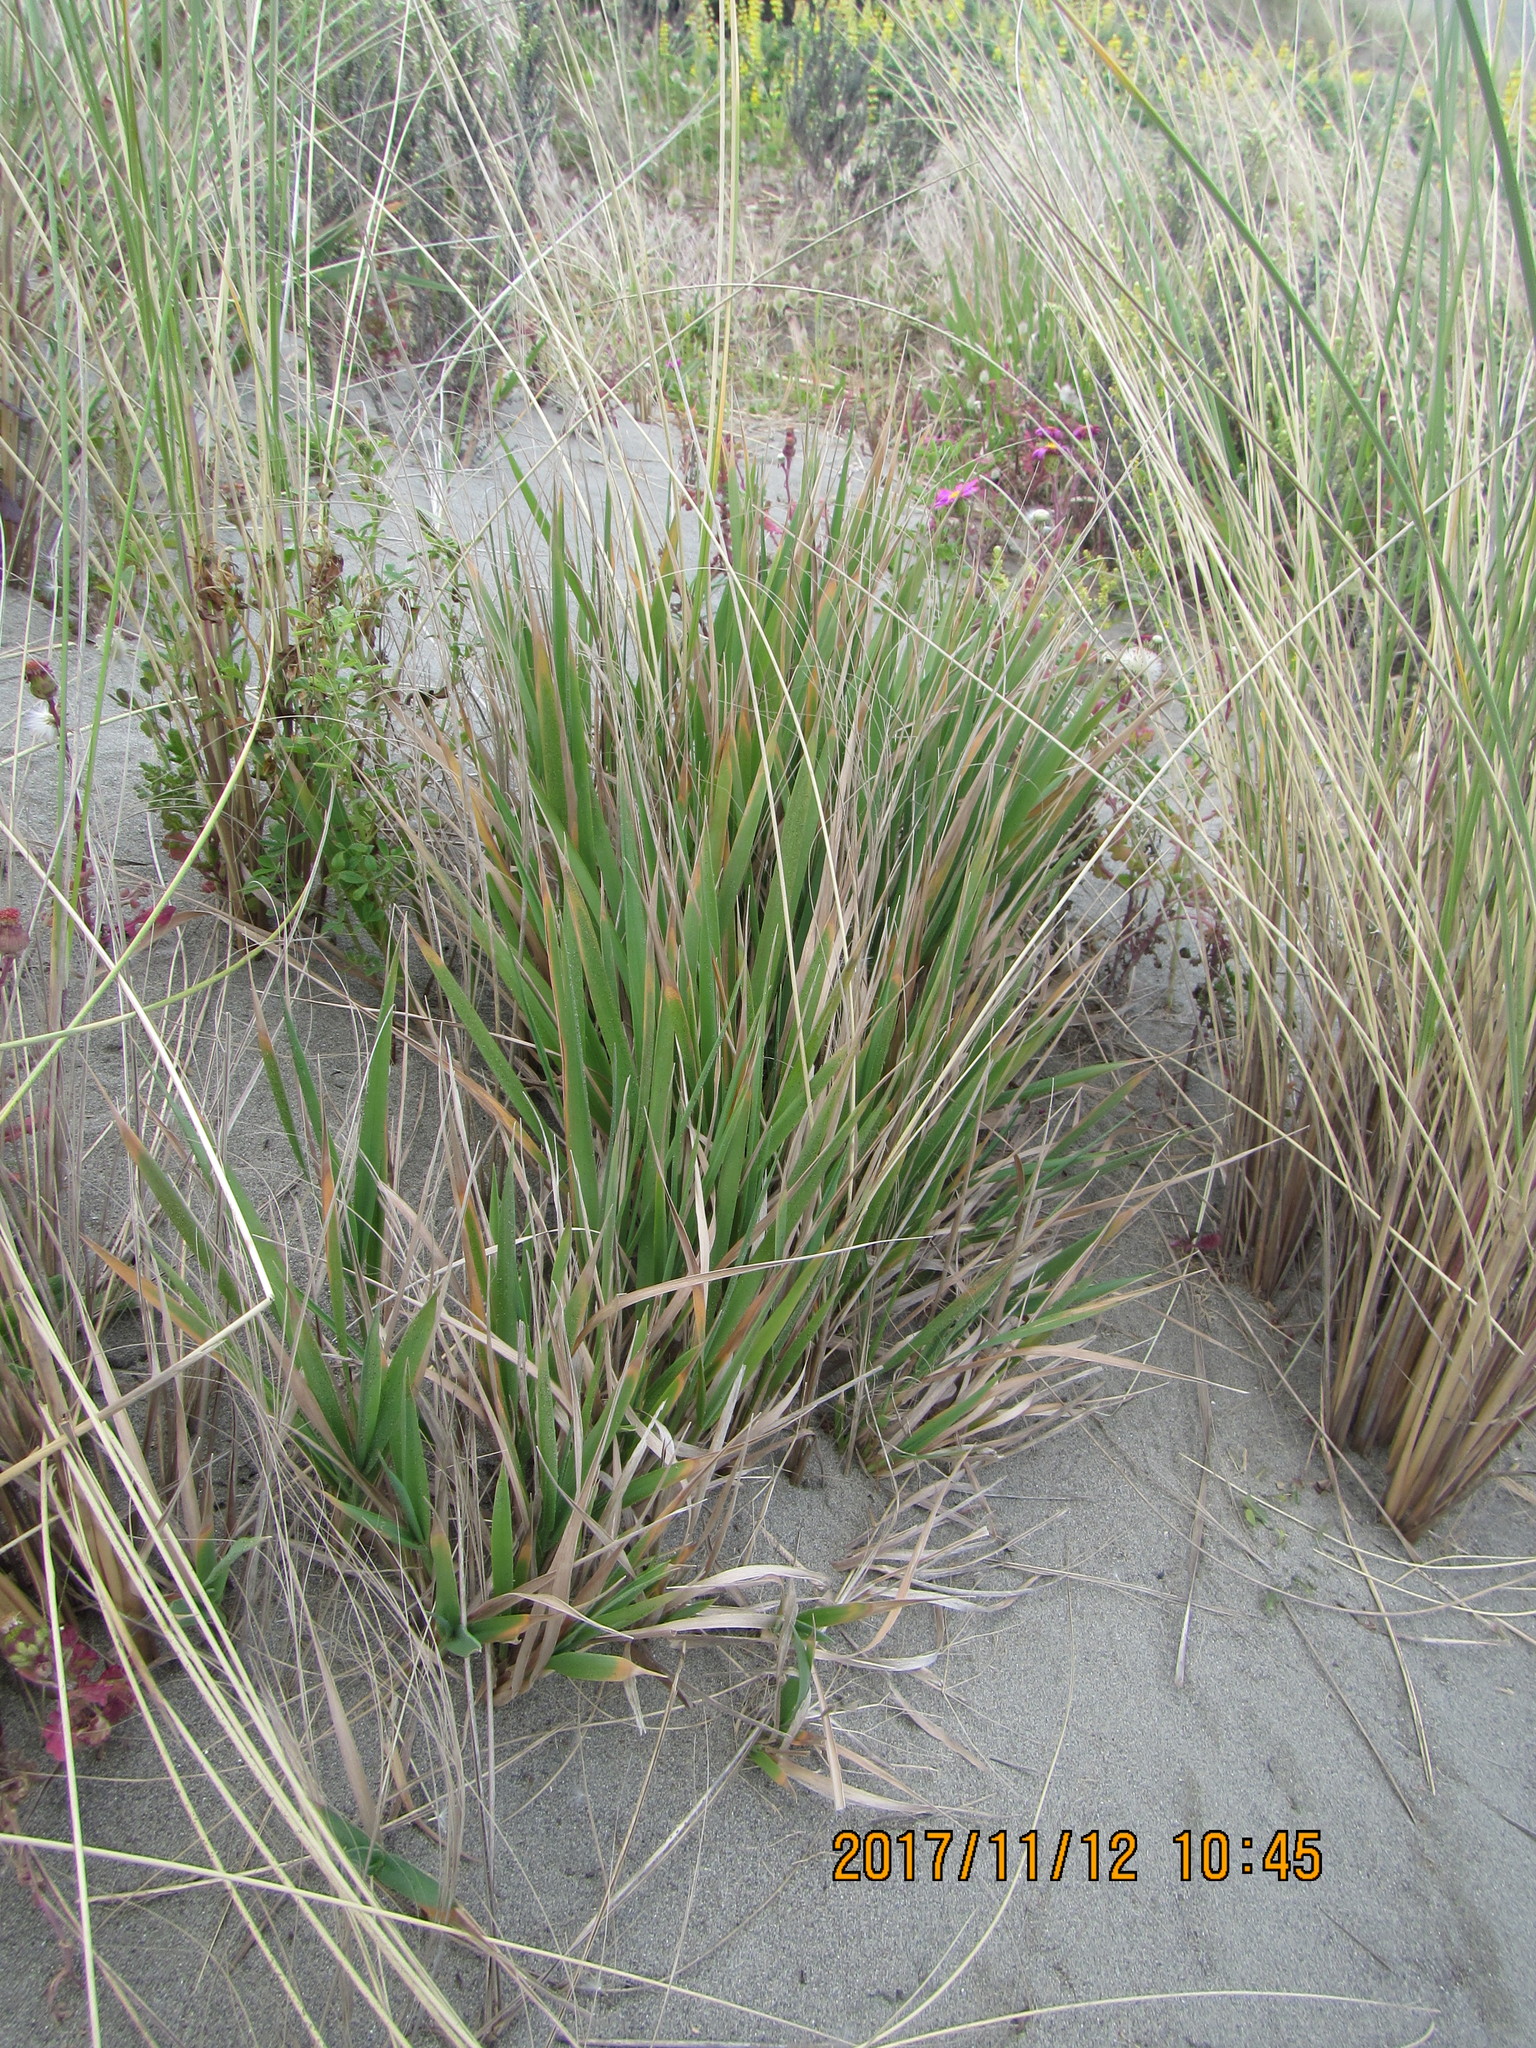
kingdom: Plantae
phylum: Tracheophyta
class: Liliopsida
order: Poales
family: Poaceae
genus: Lachnagrostis
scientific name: Lachnagrostis billardierei
